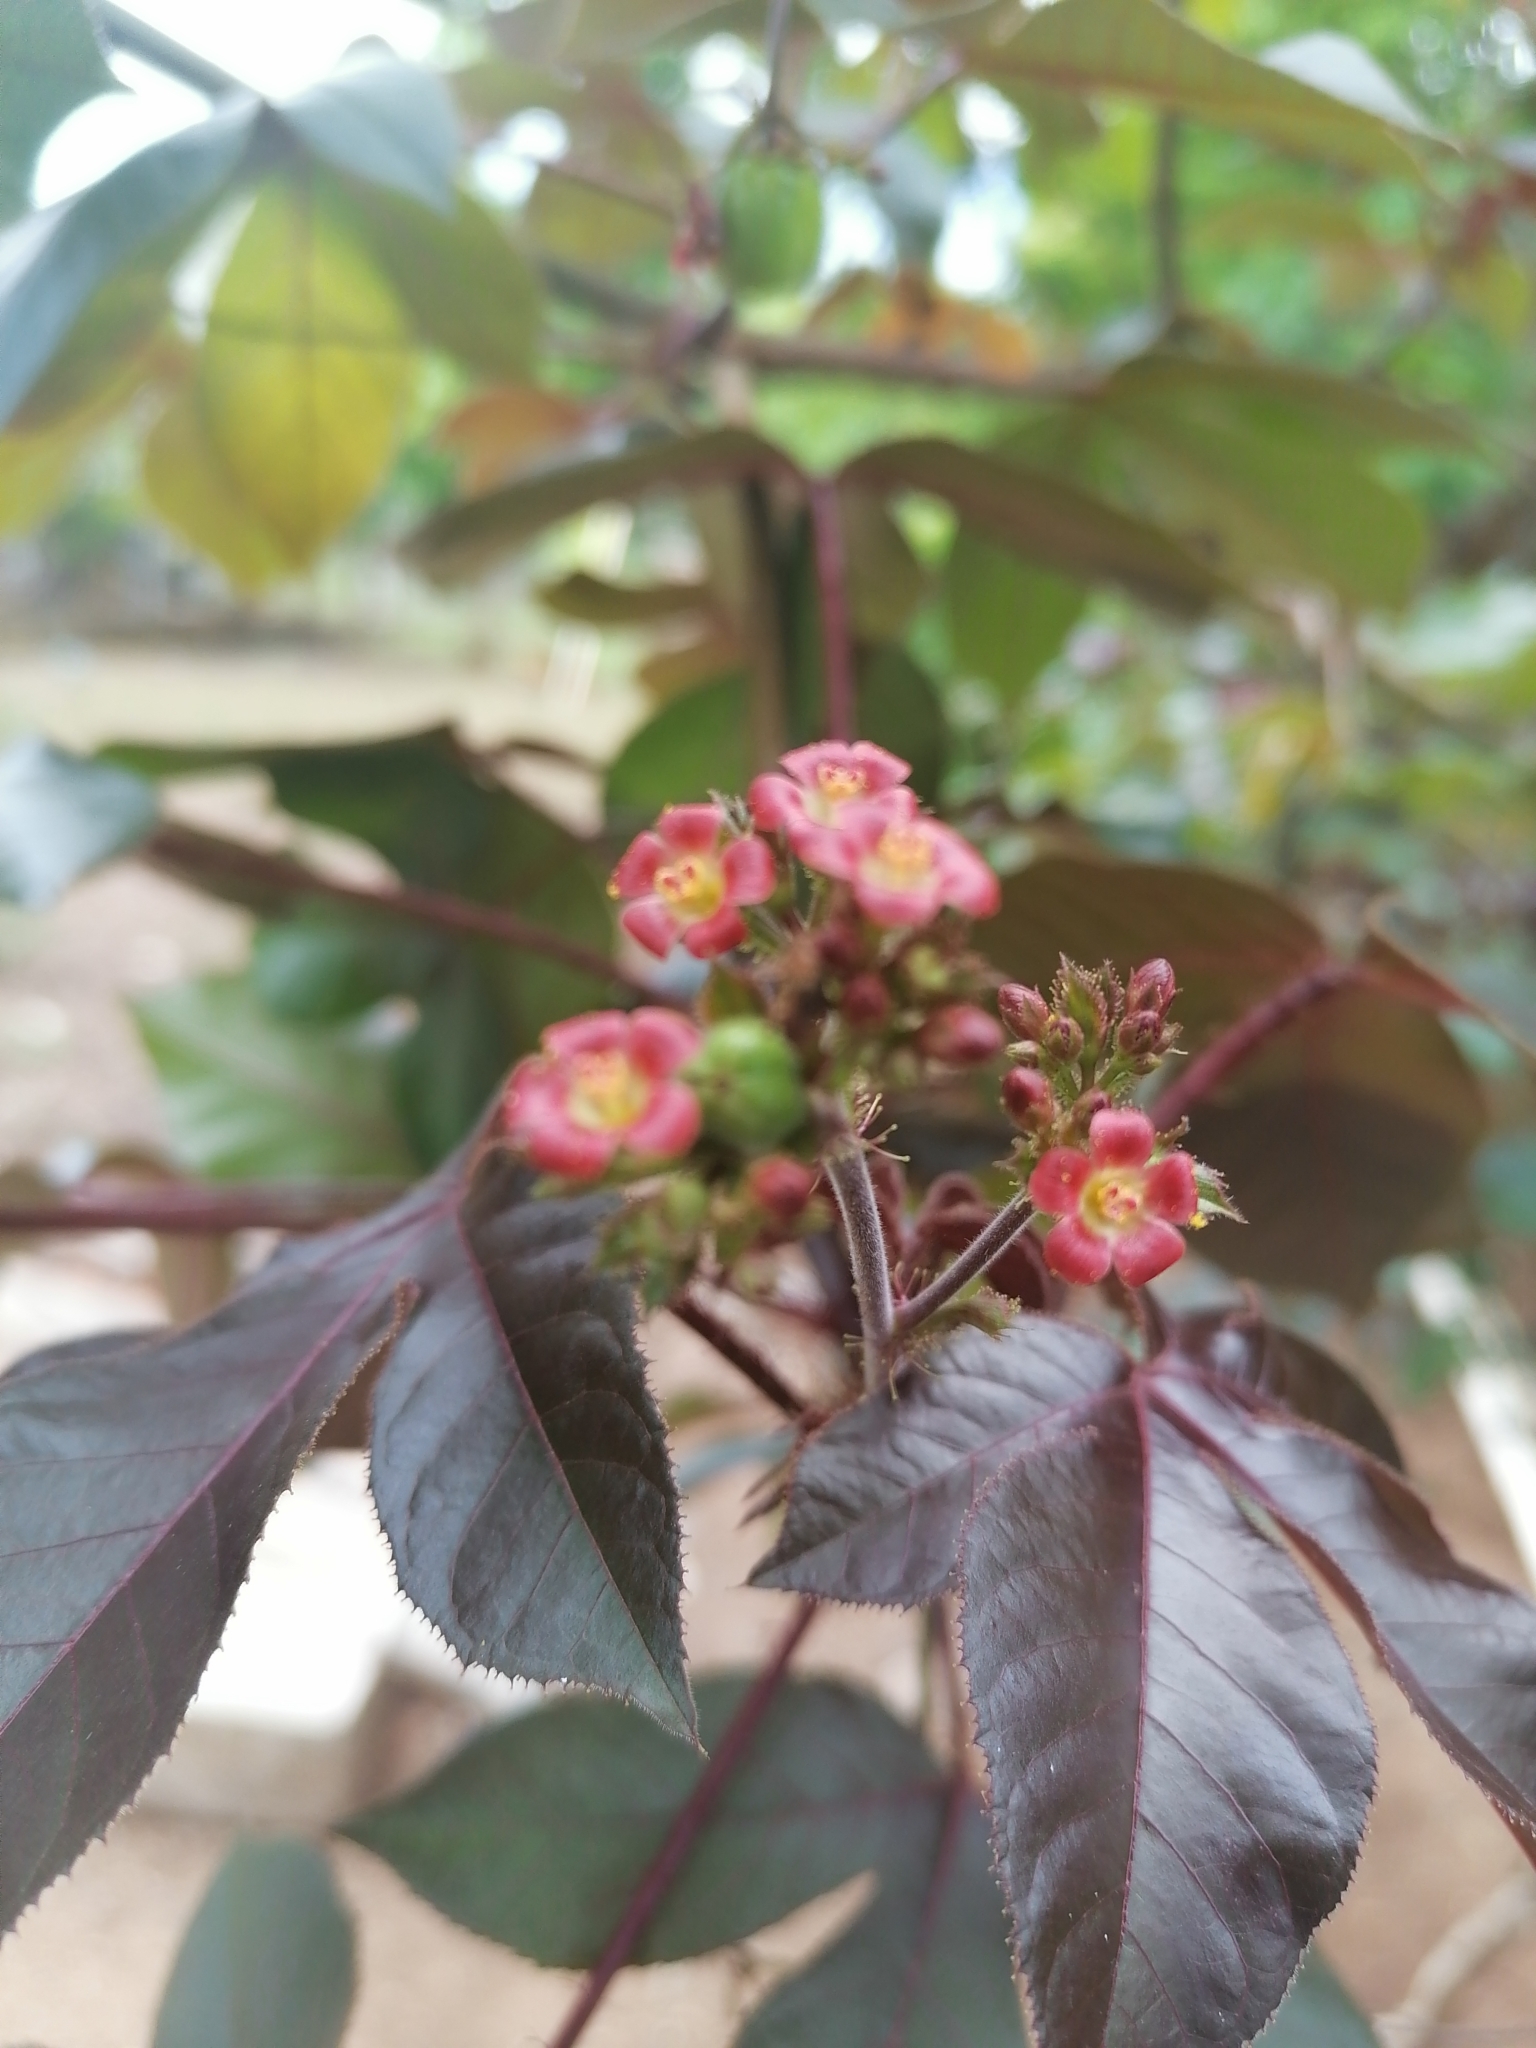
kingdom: Plantae
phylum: Tracheophyta
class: Magnoliopsida
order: Malpighiales
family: Euphorbiaceae
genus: Jatropha
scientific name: Jatropha gossypiifolia
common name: Bellyache bush
